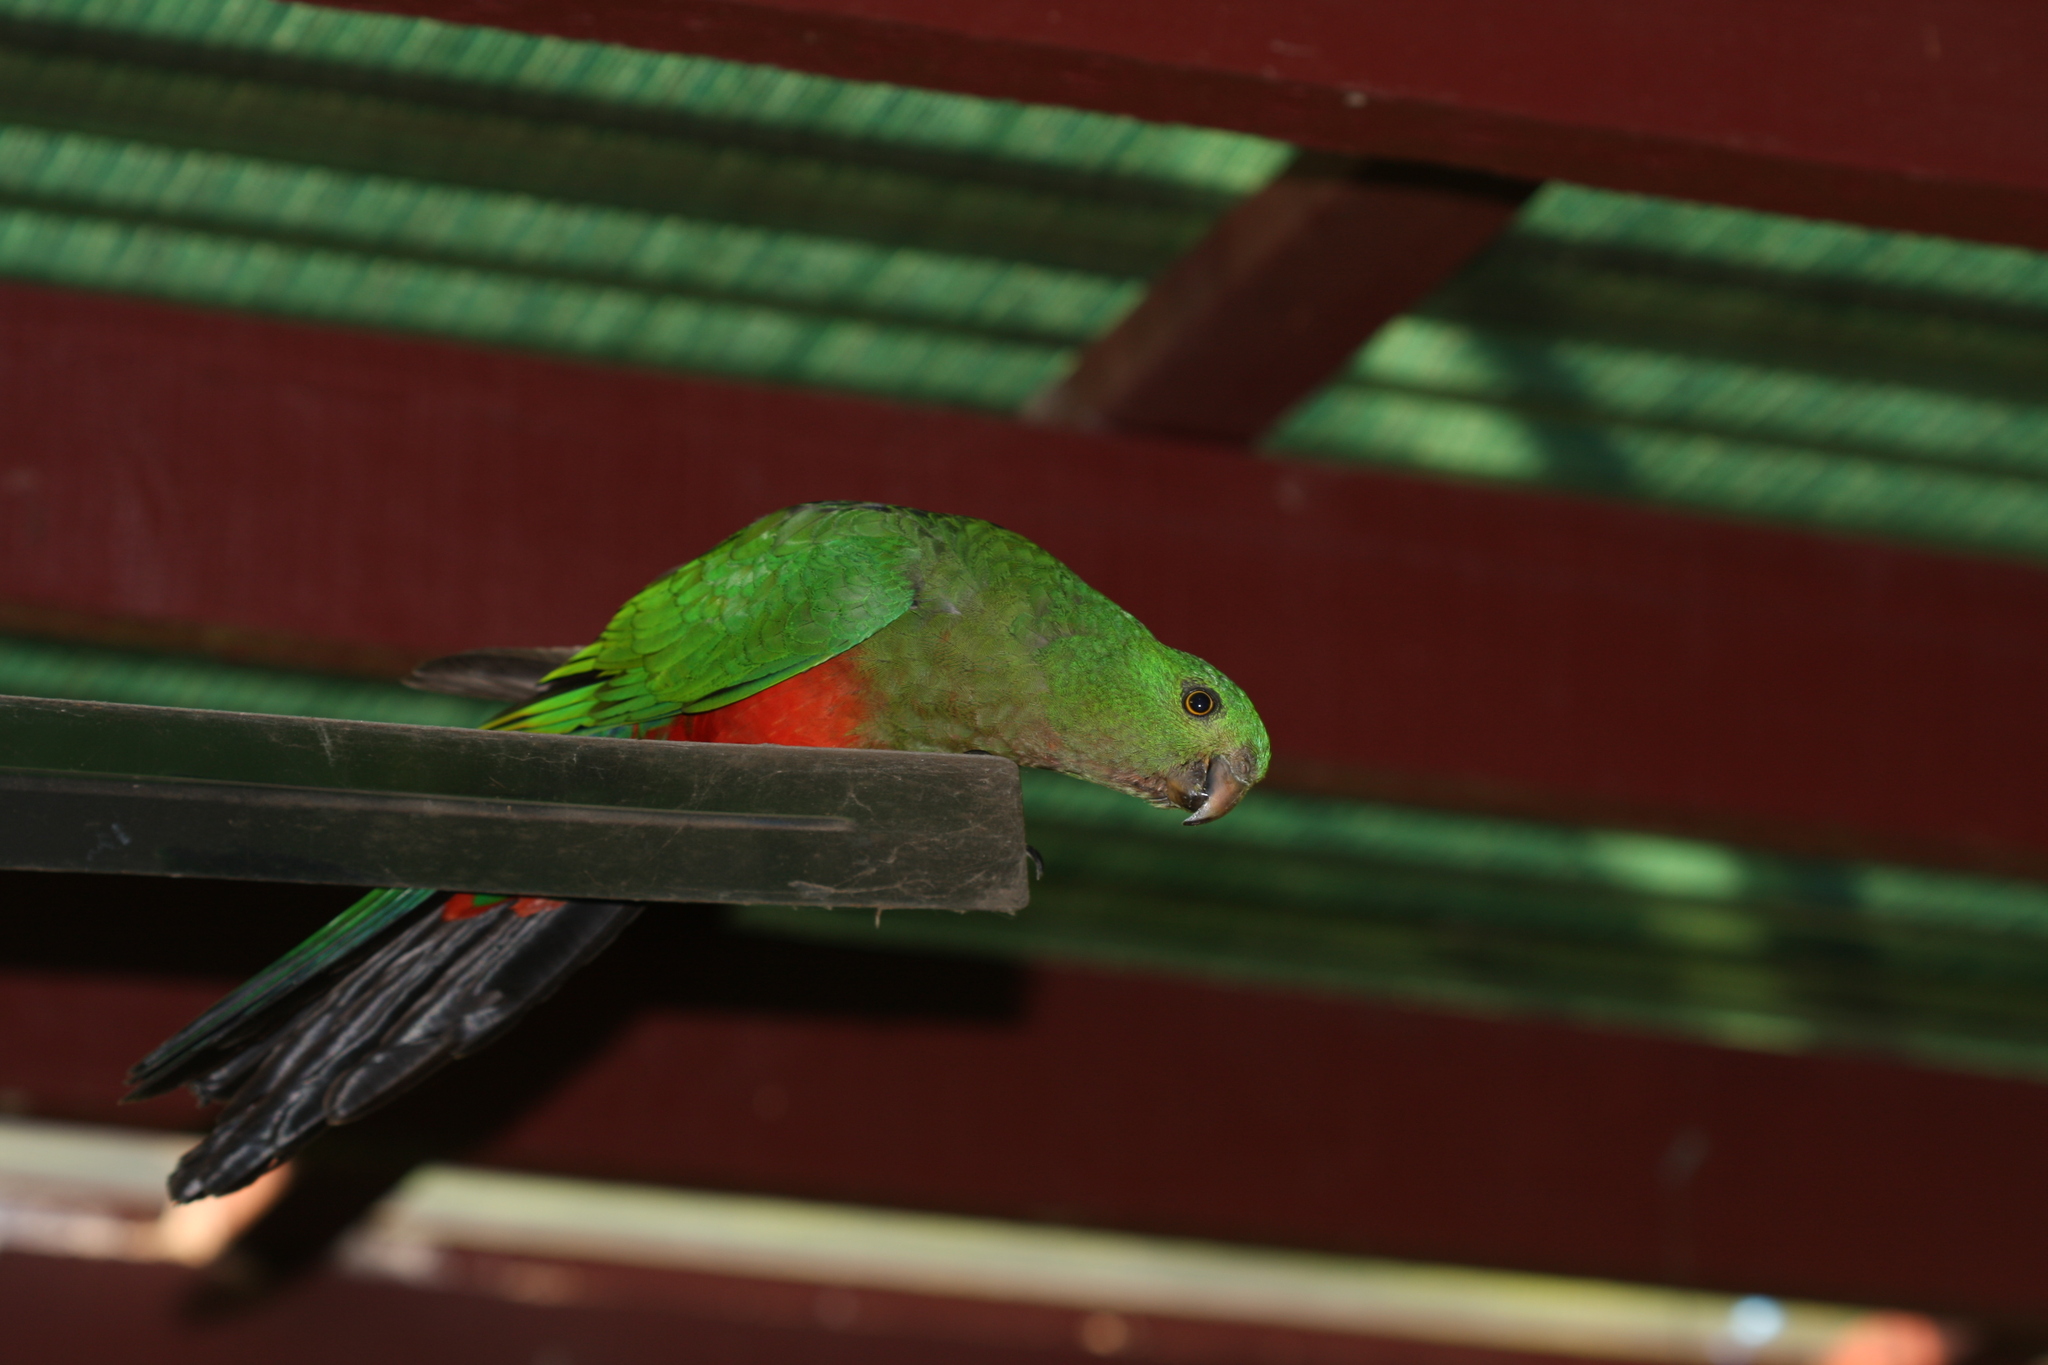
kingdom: Animalia
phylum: Chordata
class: Aves
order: Psittaciformes
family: Psittacidae
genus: Alisterus
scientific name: Alisterus scapularis
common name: Australian king parrot
